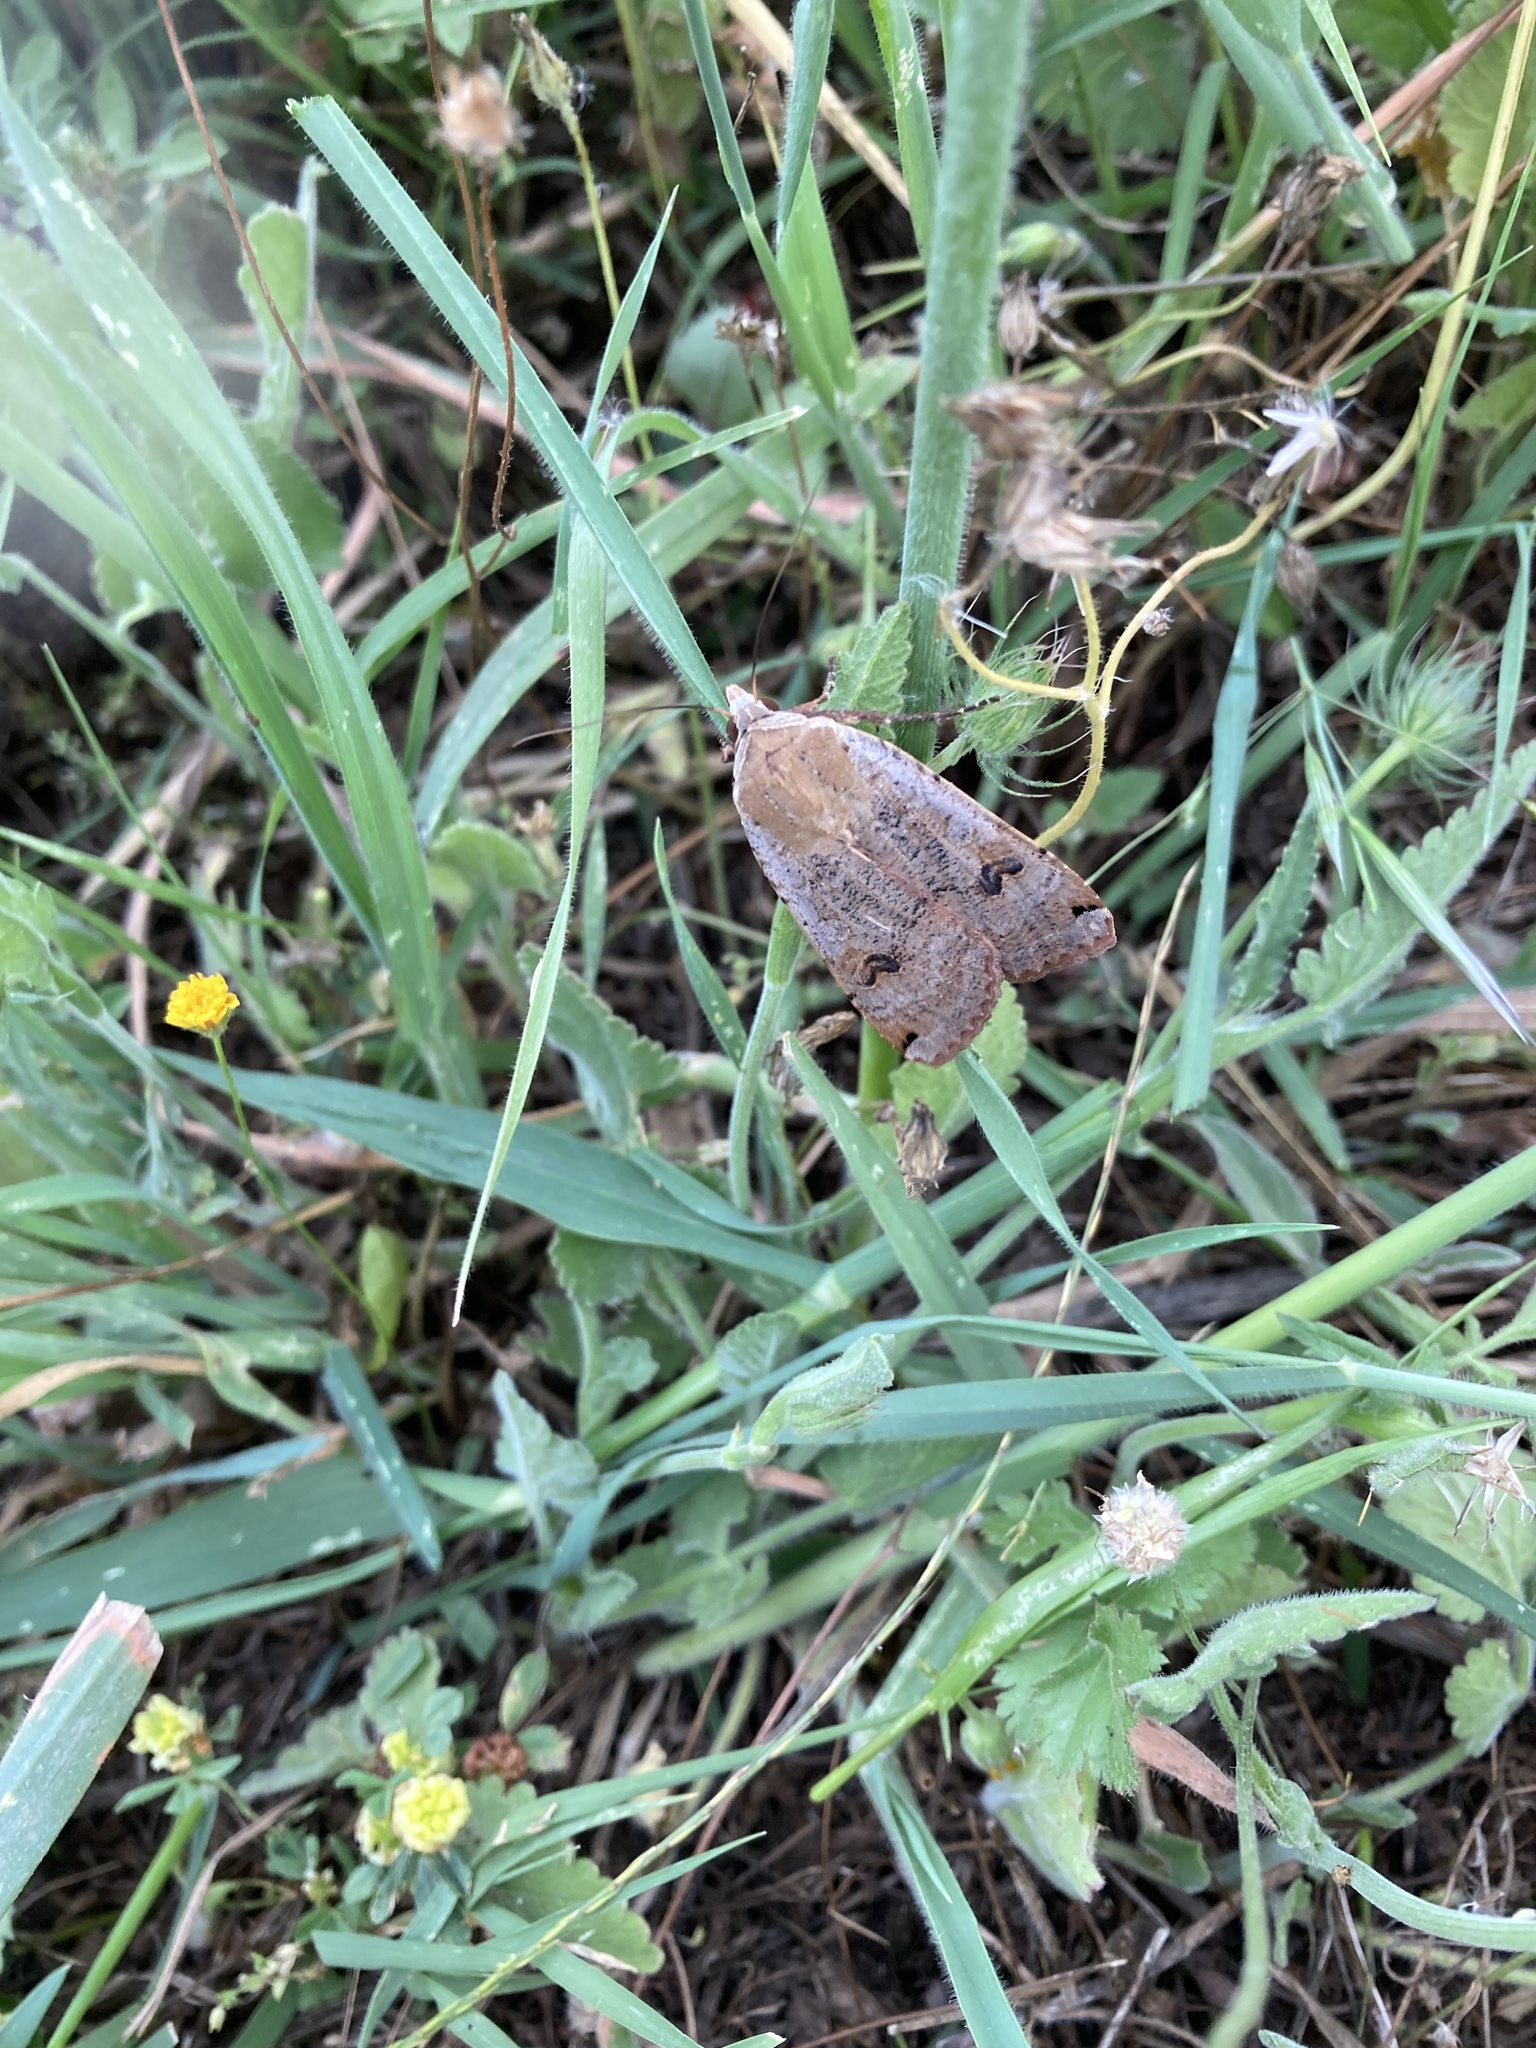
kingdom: Animalia
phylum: Arthropoda
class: Insecta
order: Lepidoptera
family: Noctuidae
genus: Noctua
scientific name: Noctua pronuba
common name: Large yellow underwing
